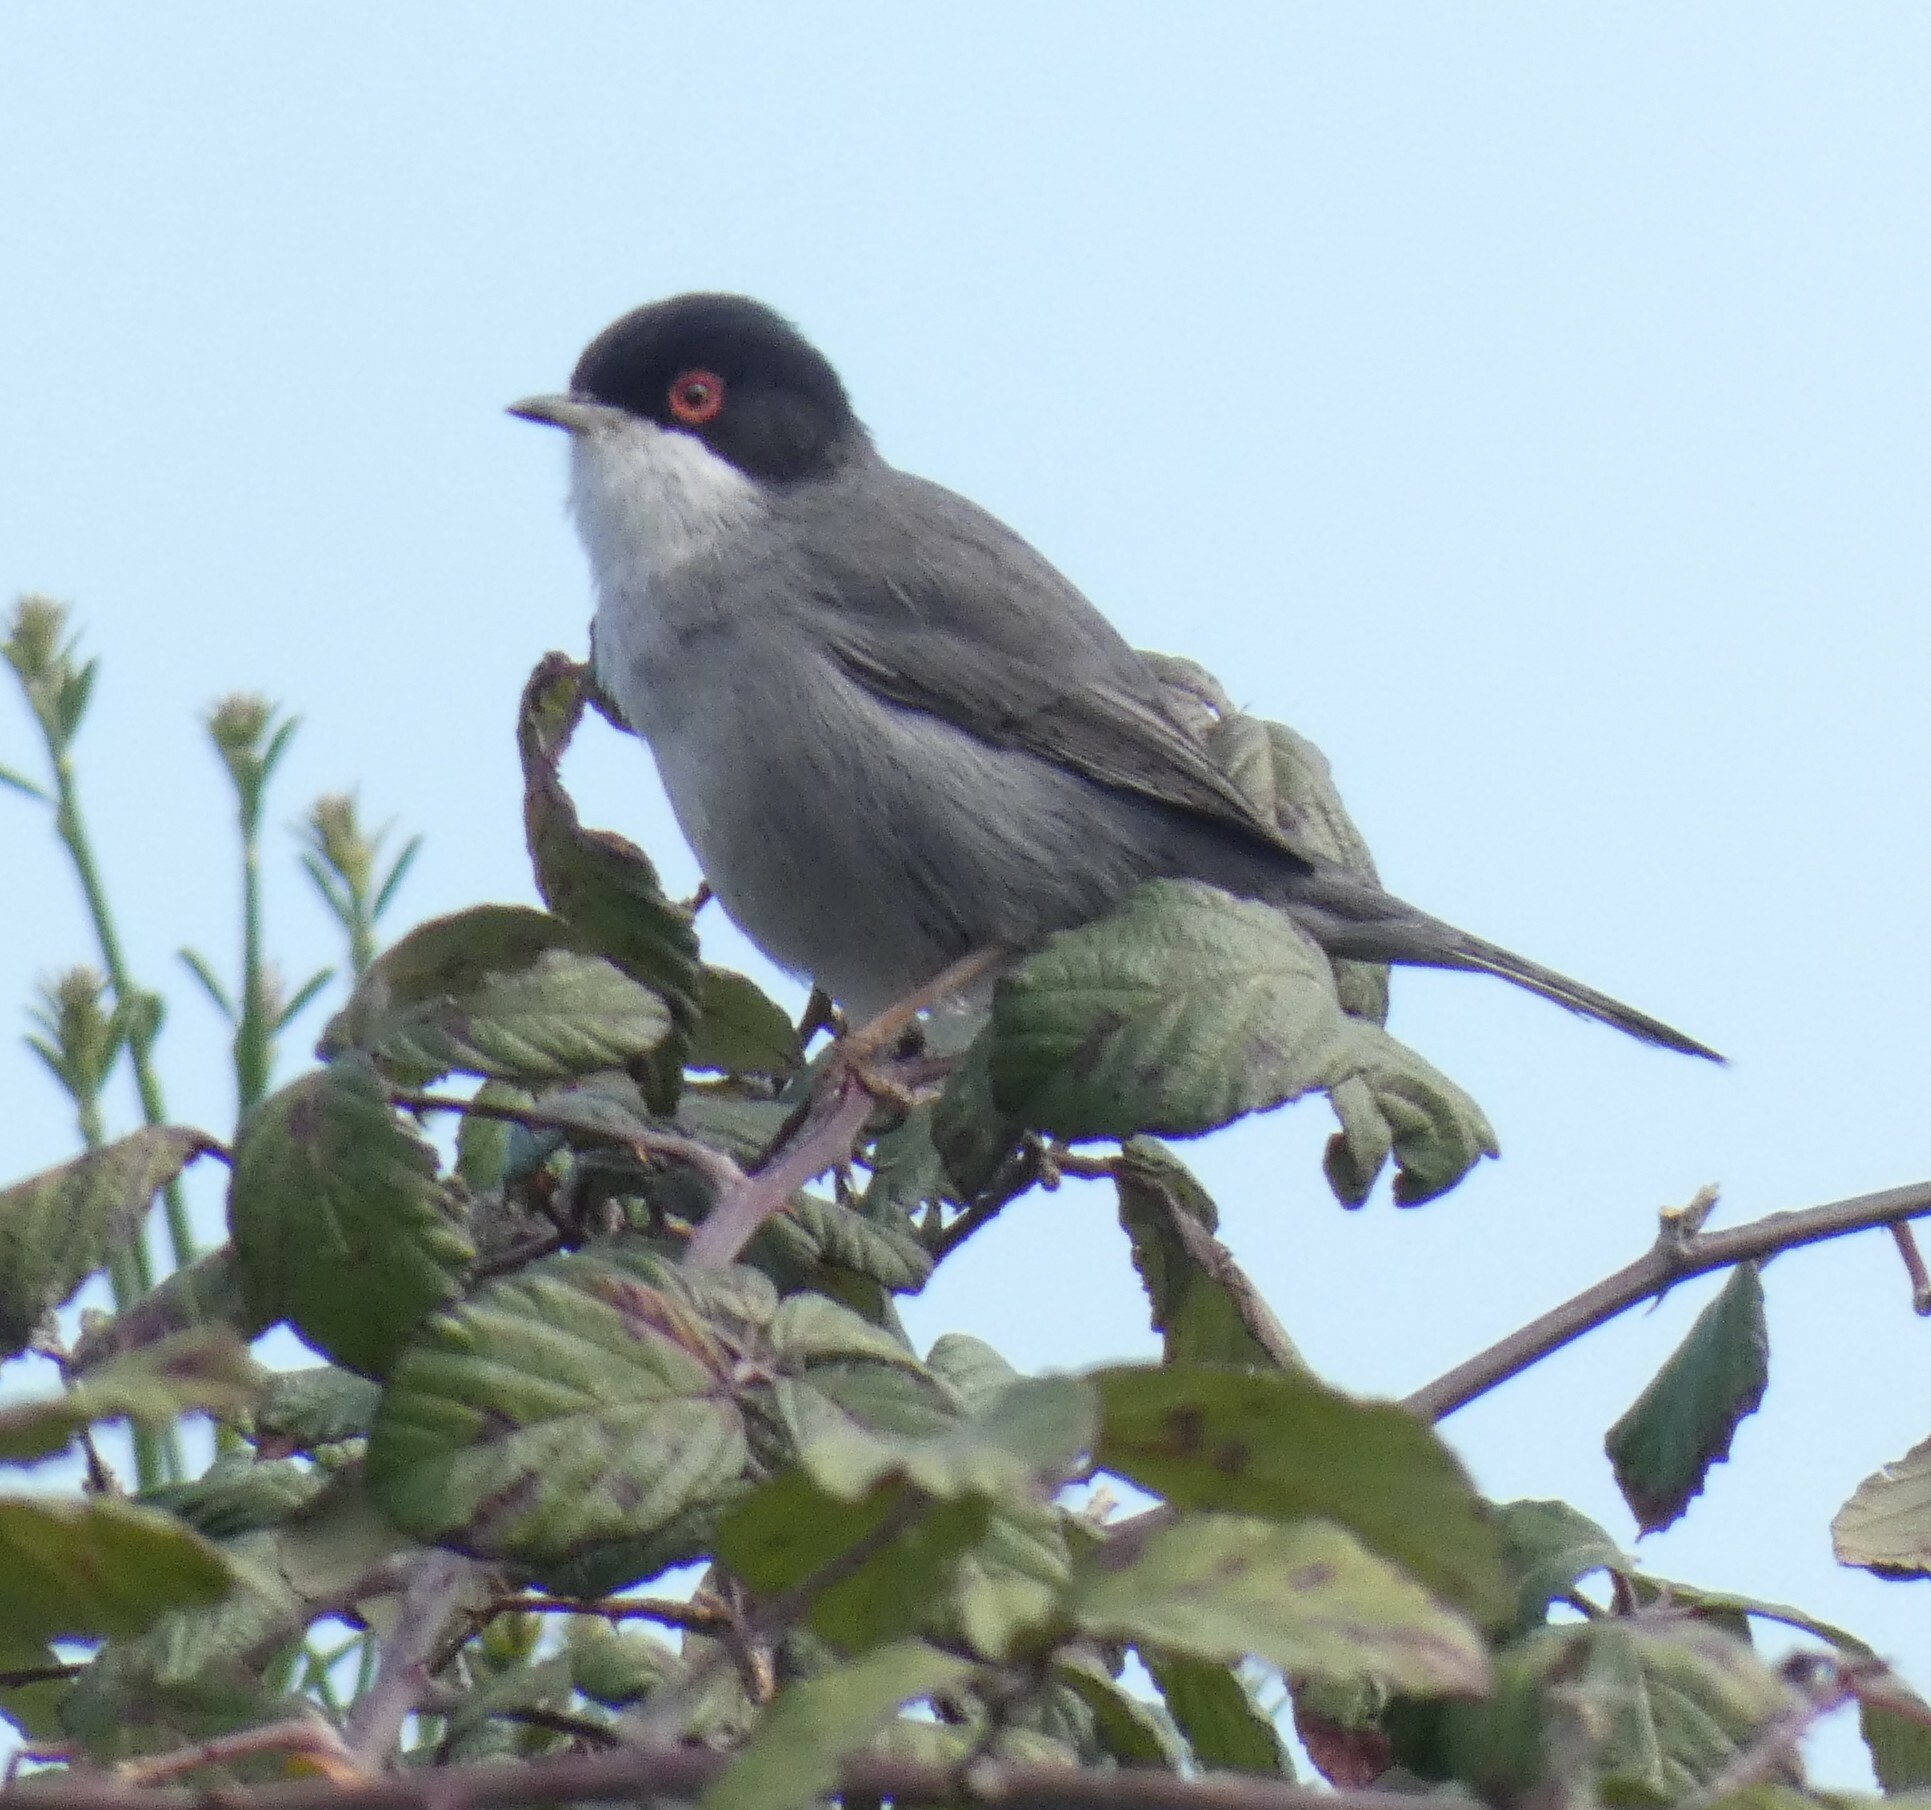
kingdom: Animalia
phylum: Chordata
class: Aves
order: Passeriformes
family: Sylviidae
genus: Curruca
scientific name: Curruca melanocephala
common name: Sardinian warbler
